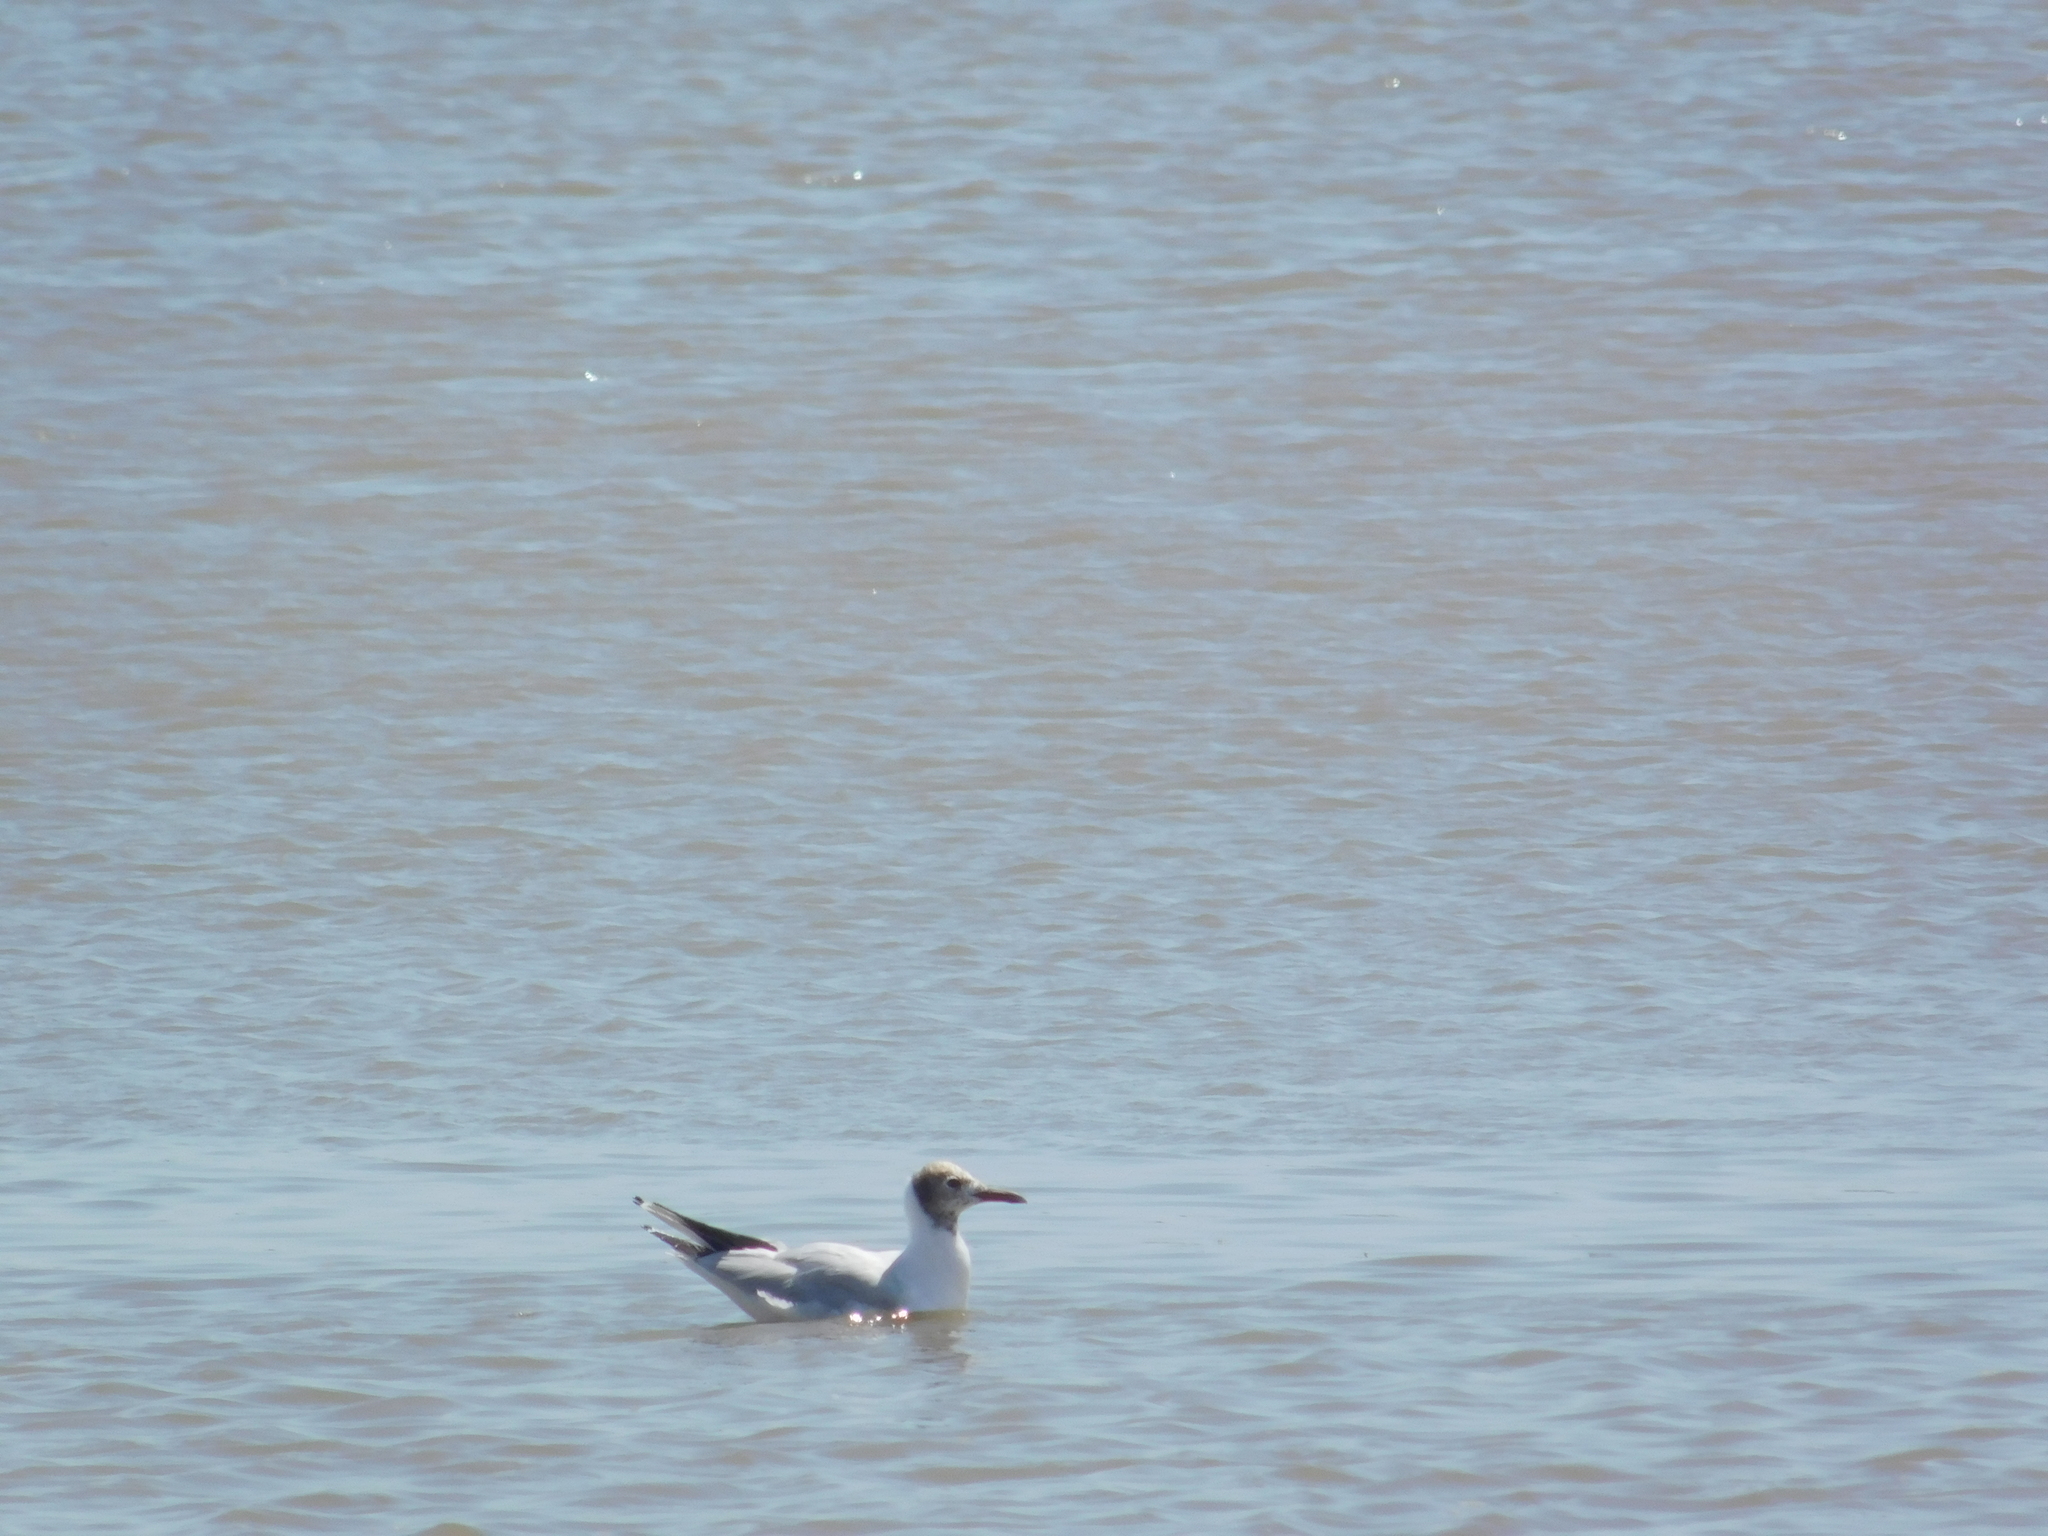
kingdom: Animalia
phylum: Chordata
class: Aves
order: Charadriiformes
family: Laridae
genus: Chroicocephalus
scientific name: Chroicocephalus maculipennis
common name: Brown-hooded gull
